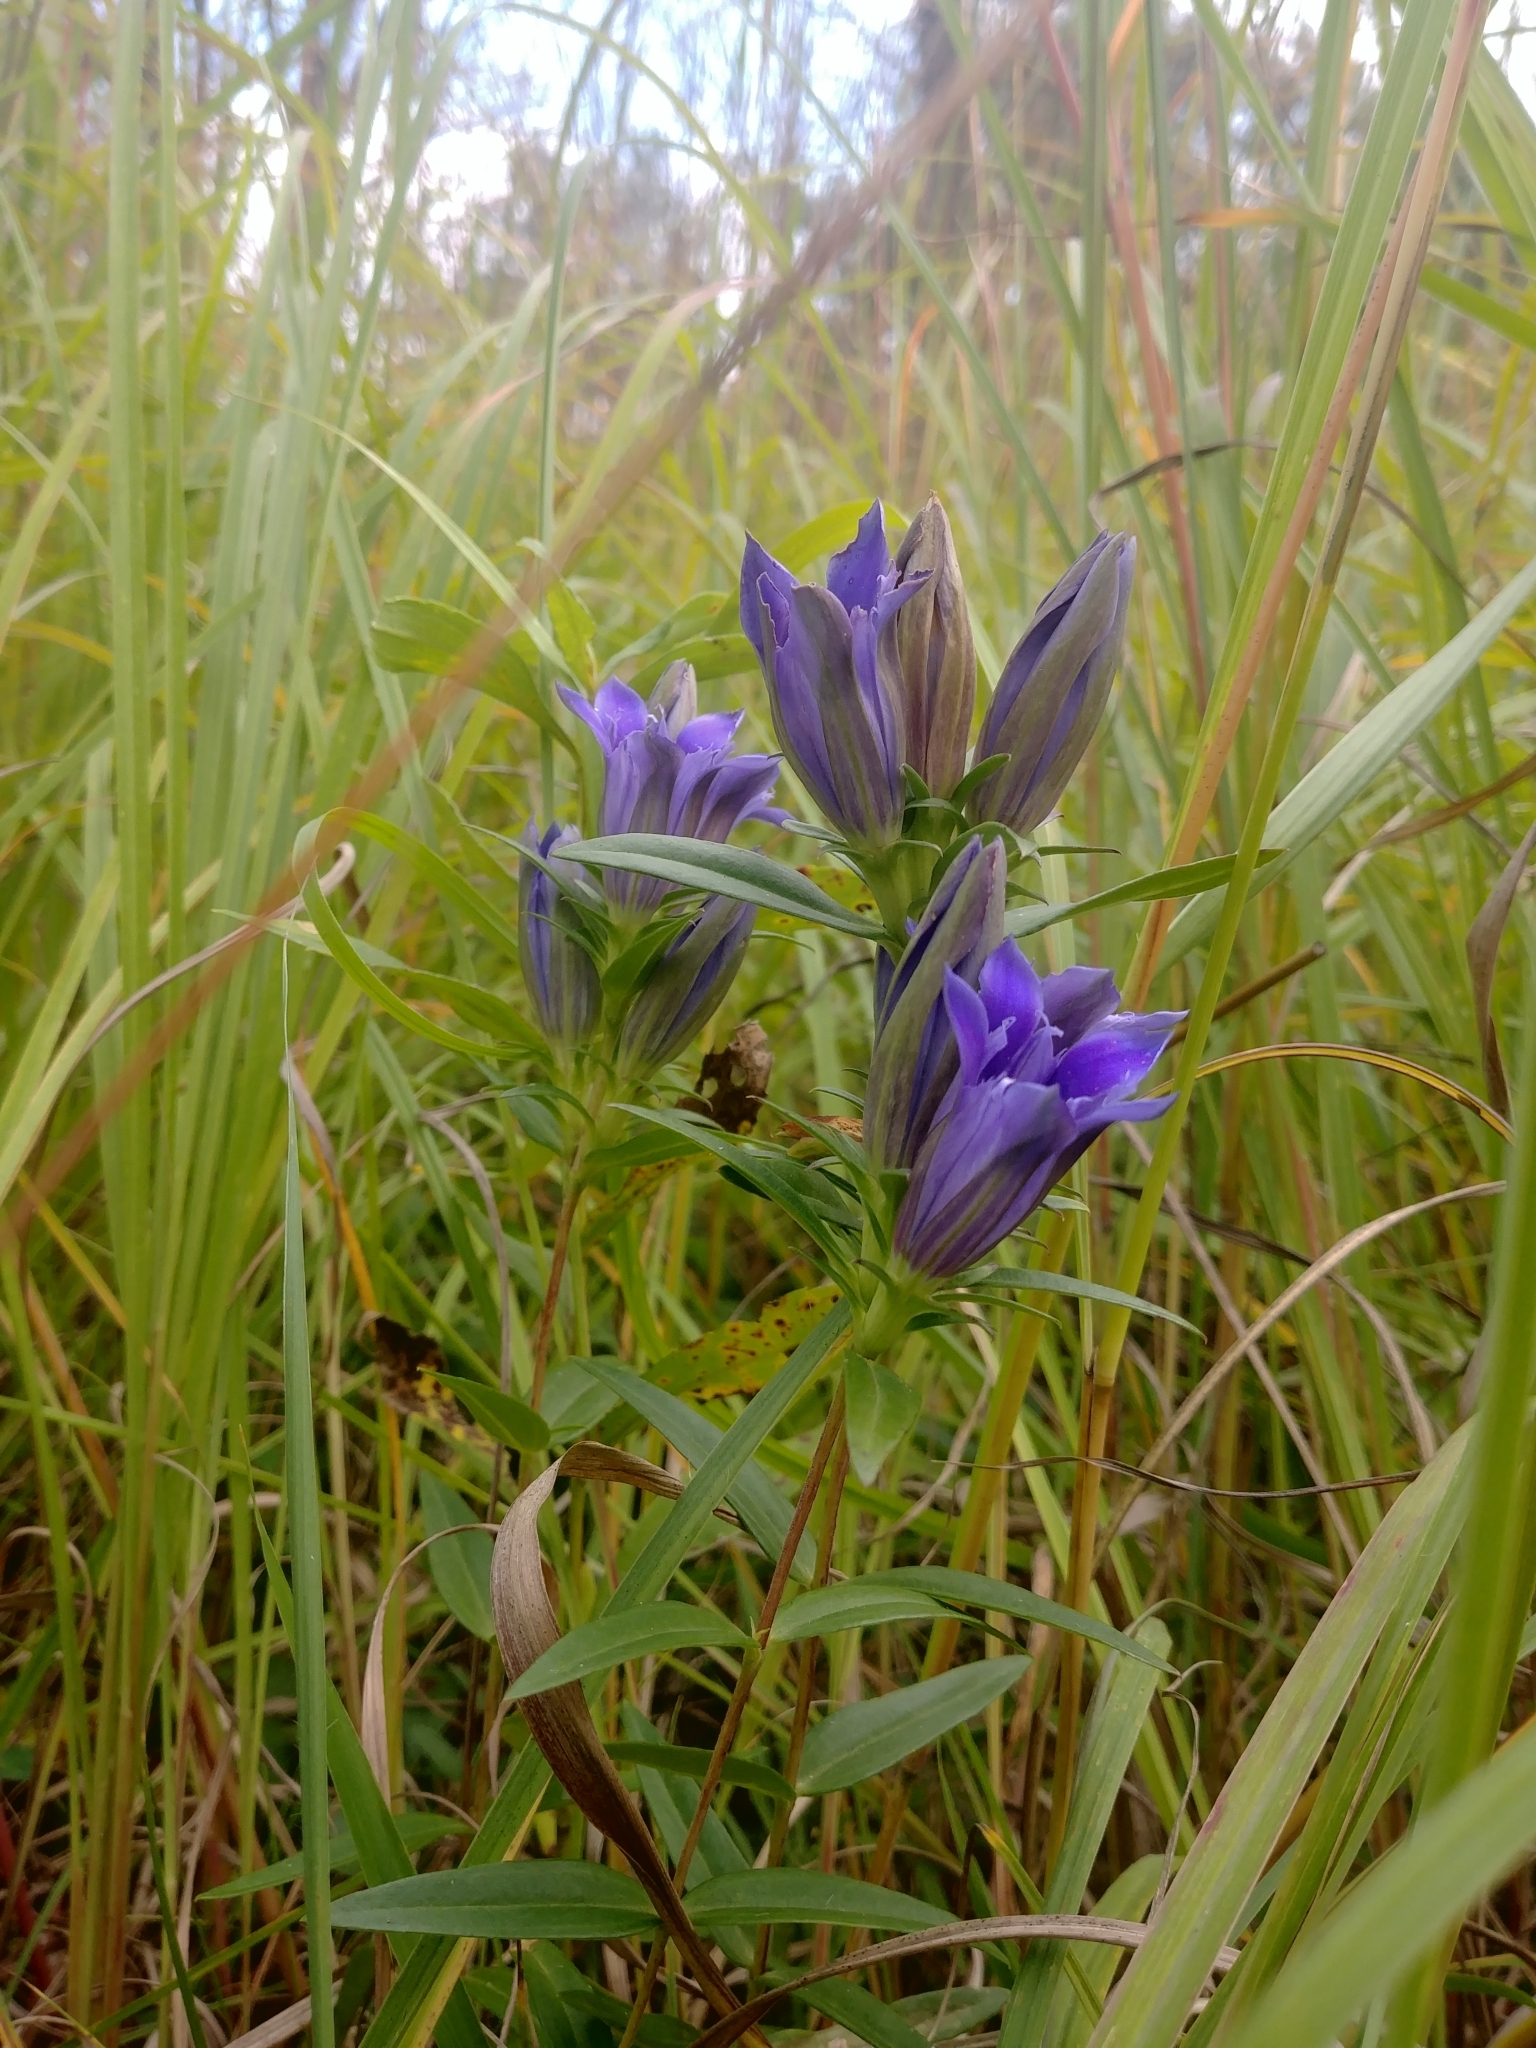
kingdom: Plantae
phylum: Tracheophyta
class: Magnoliopsida
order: Gentianales
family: Gentianaceae
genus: Gentiana
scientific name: Gentiana puberulenta
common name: Downy gentian
